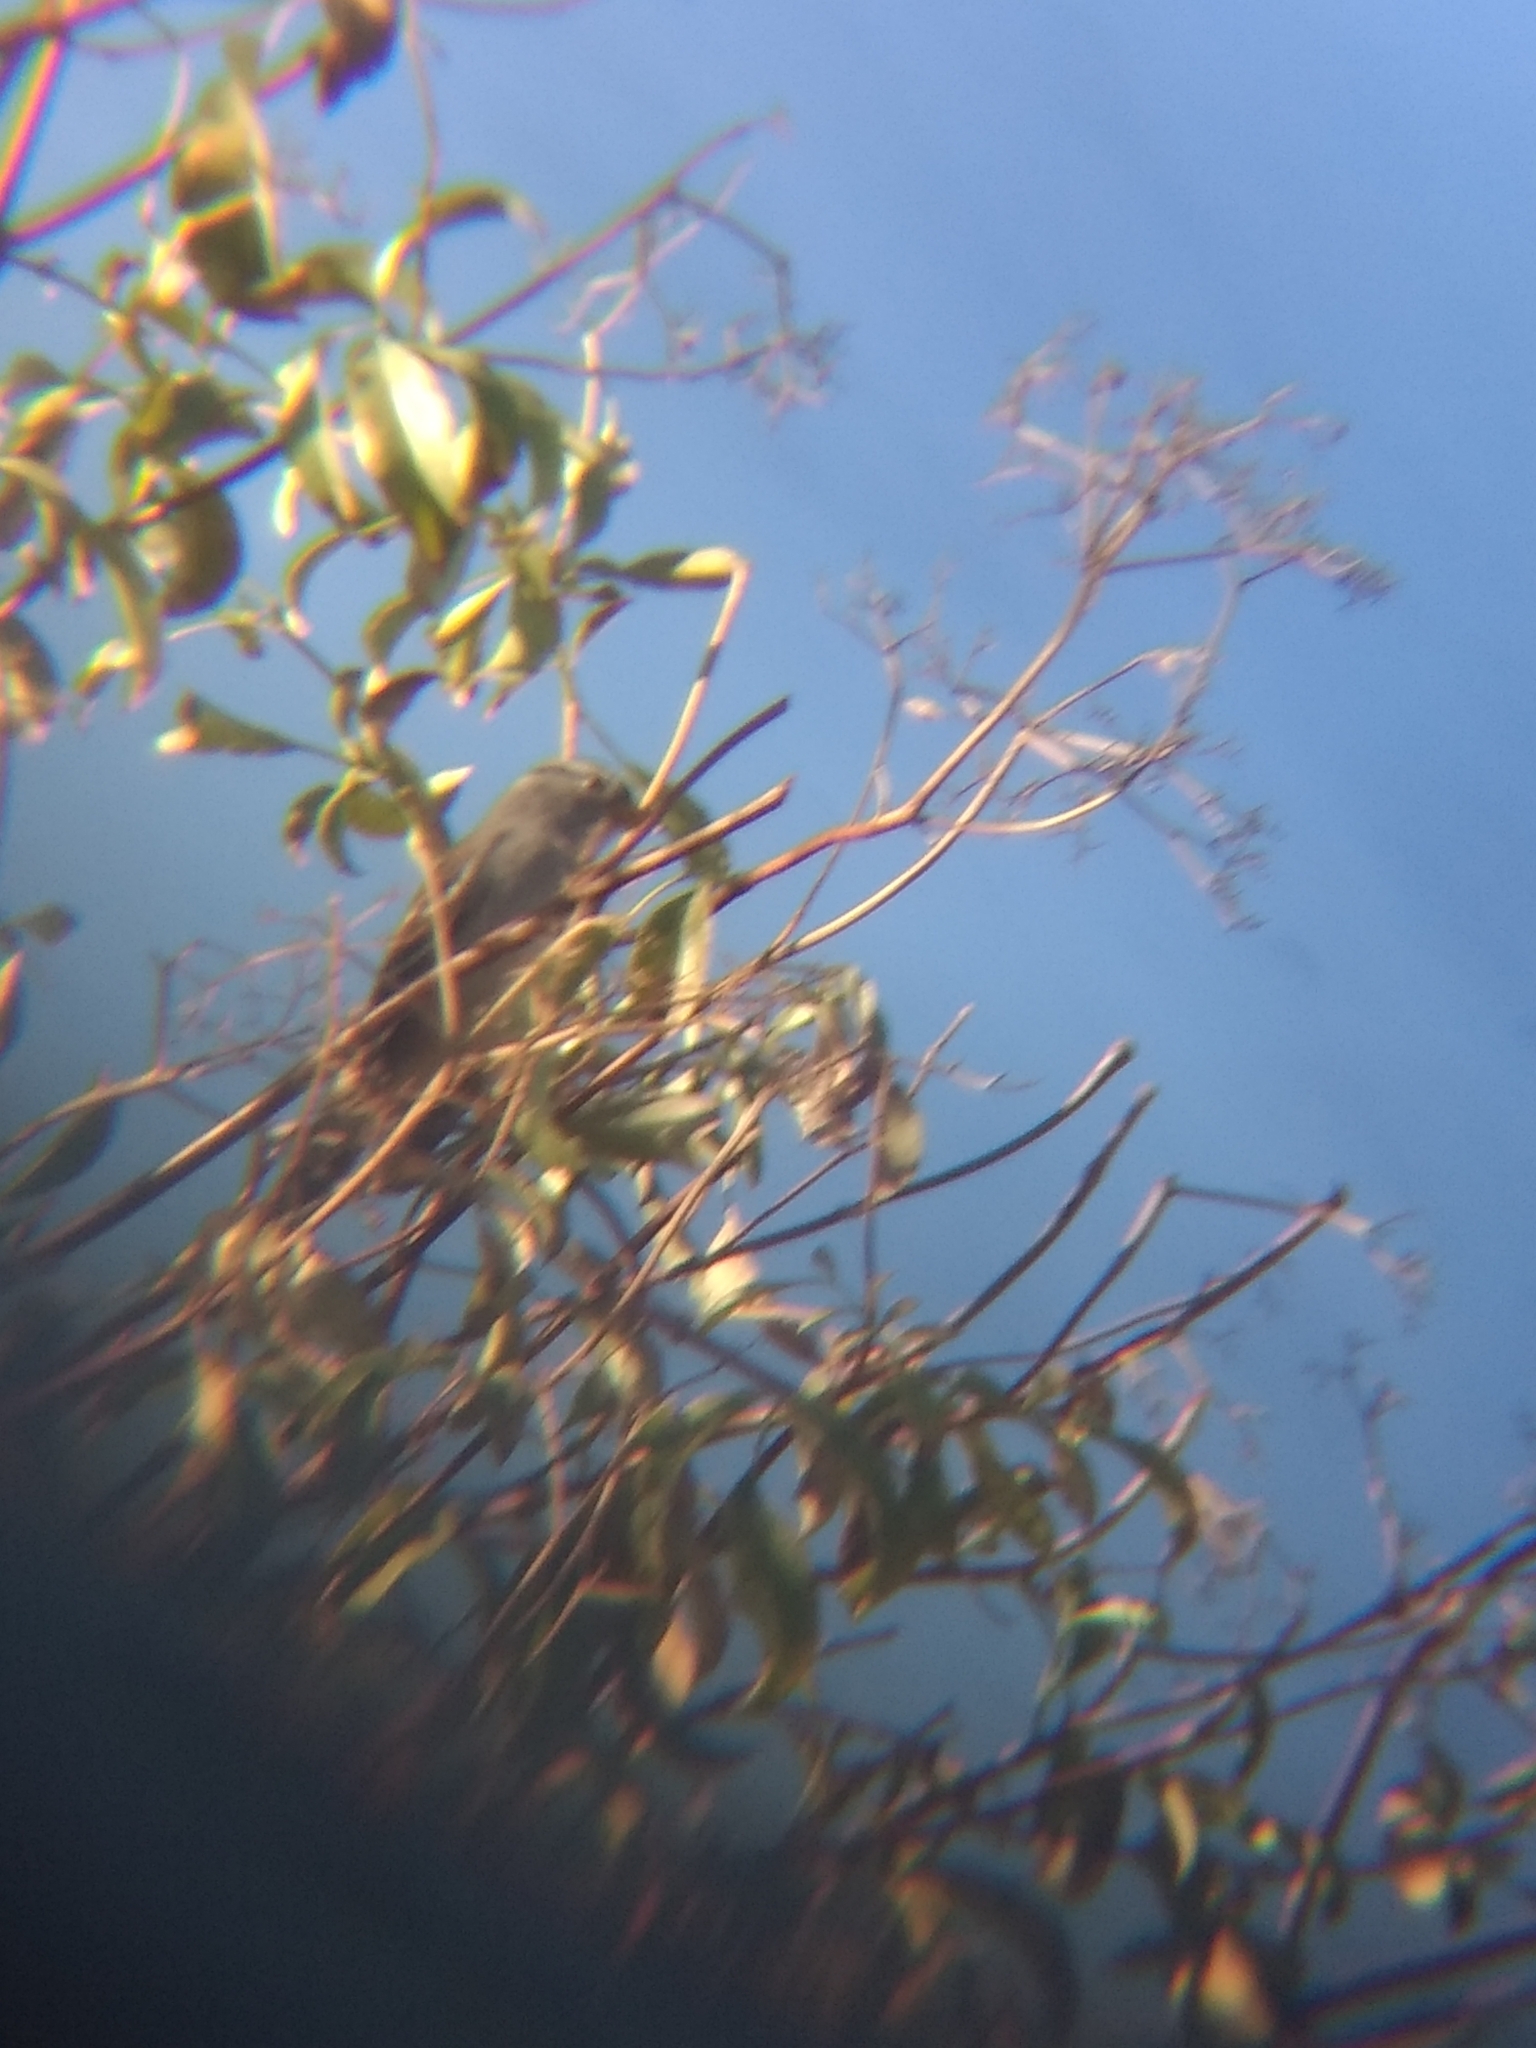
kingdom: Animalia
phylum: Chordata
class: Aves
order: Passeriformes
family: Passerellidae
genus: Zonotrichia
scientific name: Zonotrichia leucophrys
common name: White-crowned sparrow
